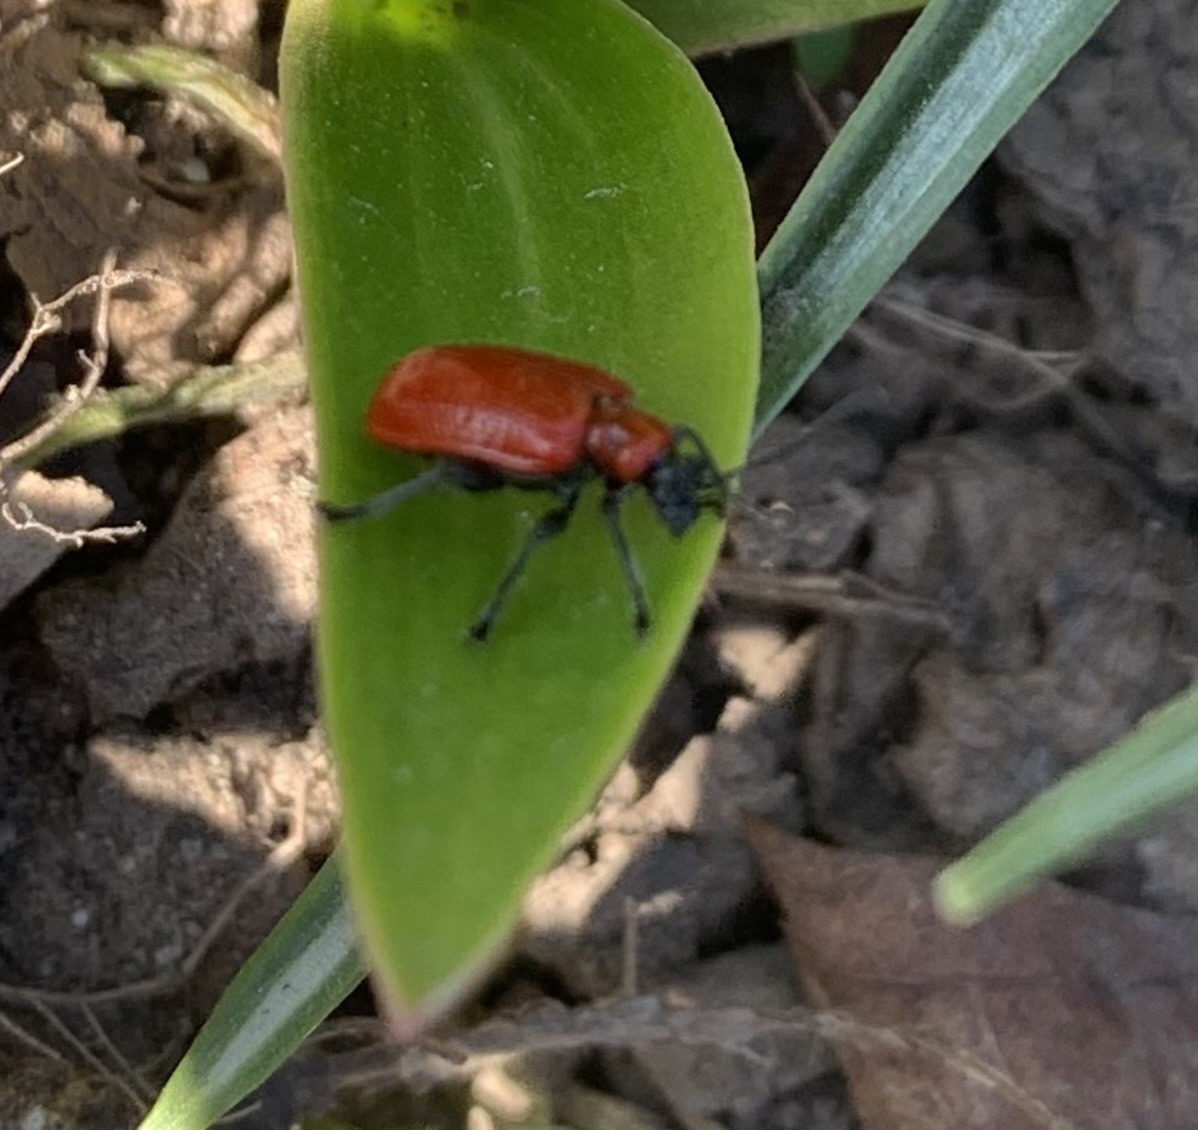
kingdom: Animalia
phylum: Arthropoda
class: Insecta
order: Coleoptera
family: Chrysomelidae
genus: Lilioceris
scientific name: Lilioceris lilii
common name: Lily beetle
